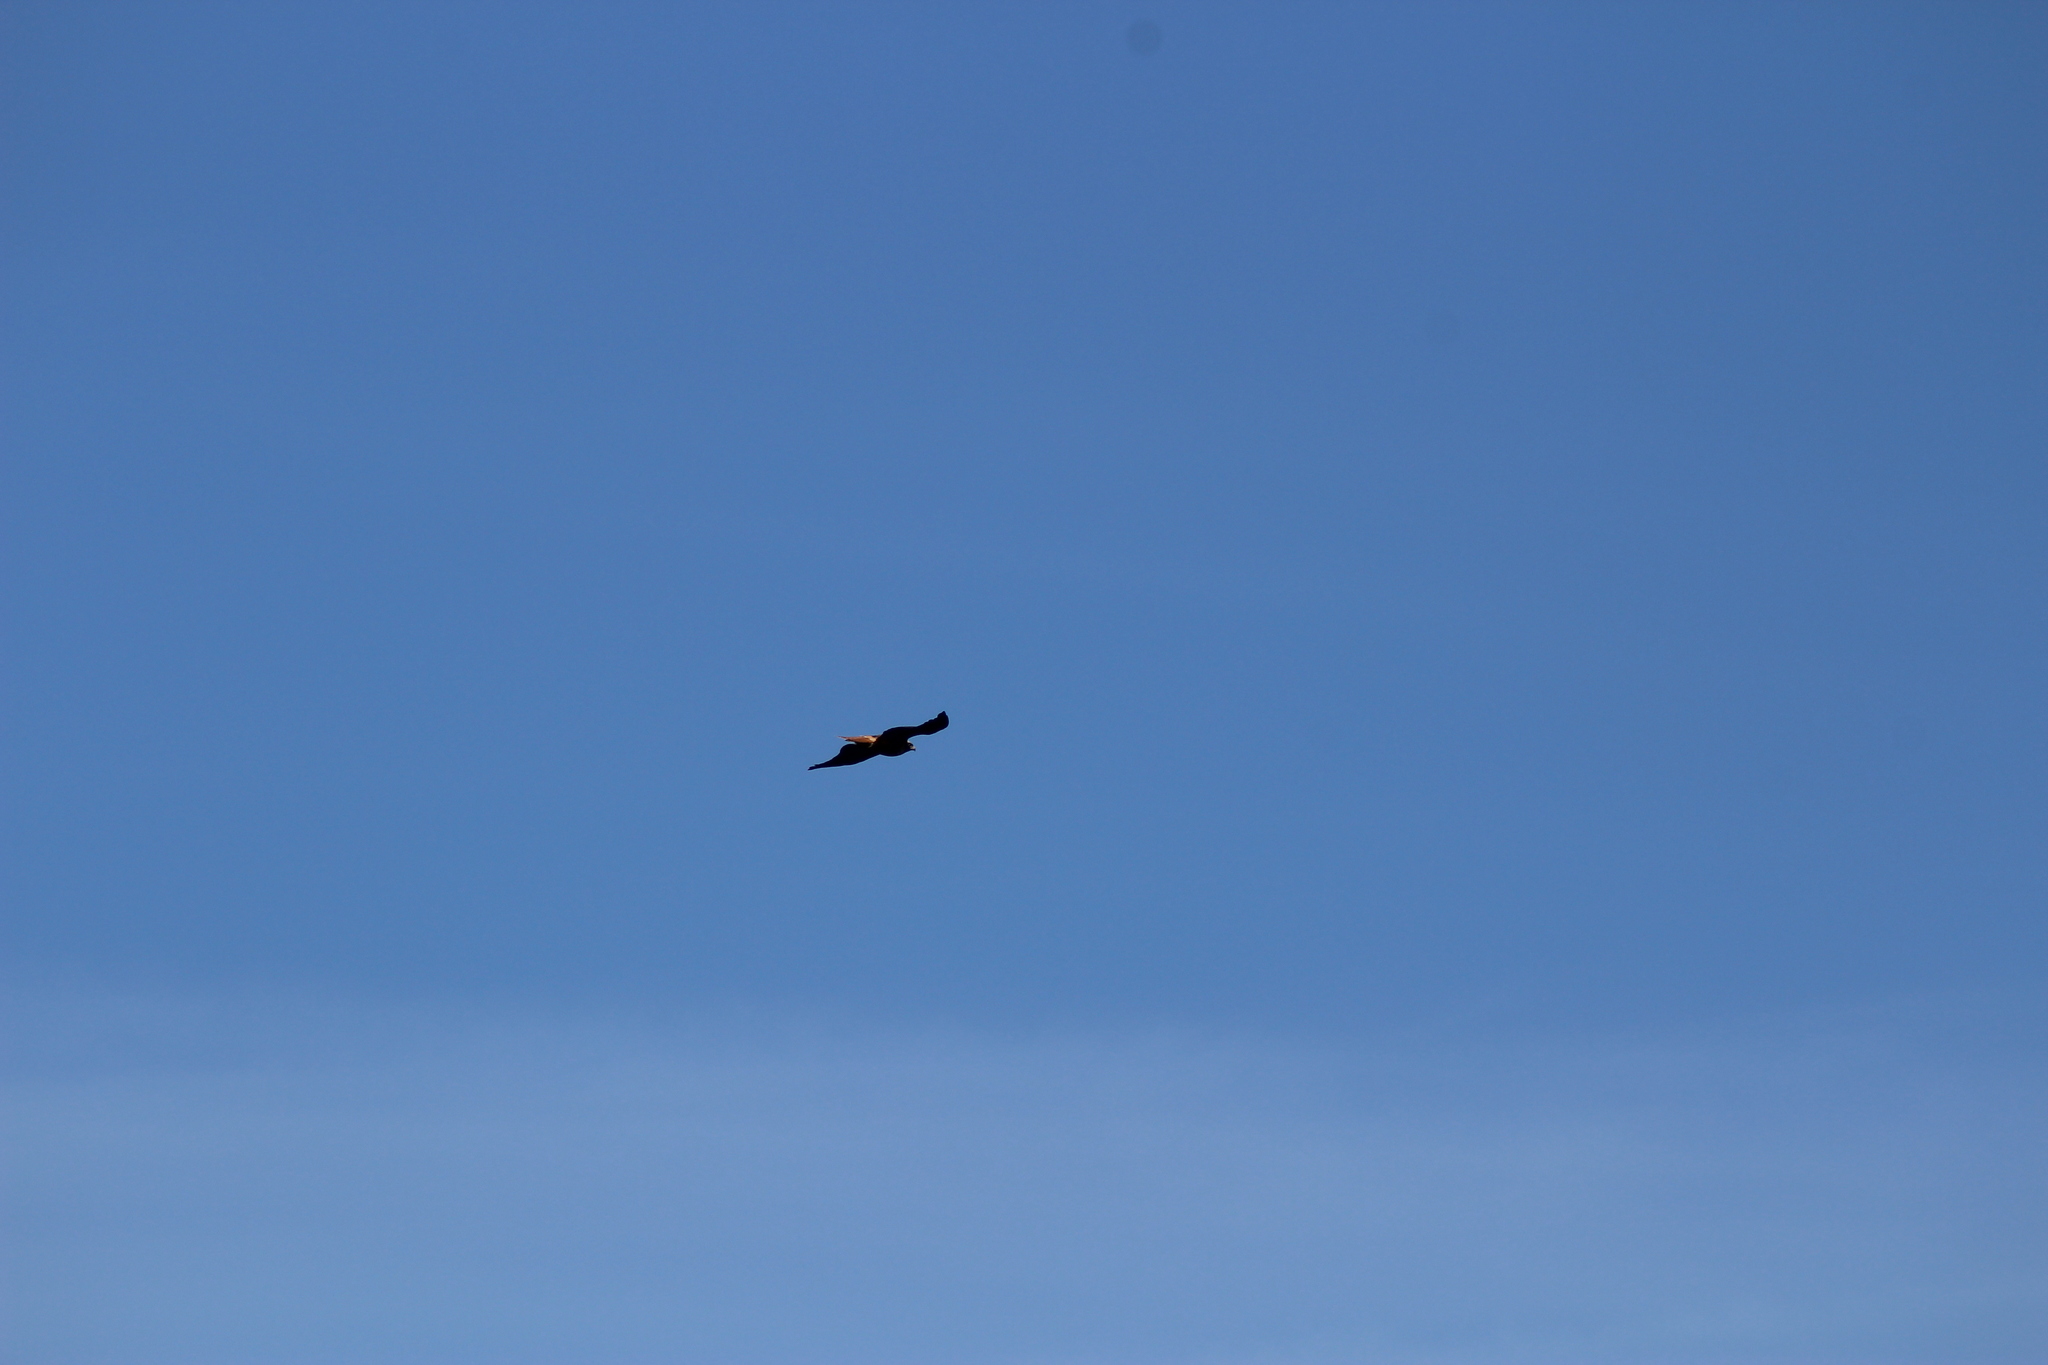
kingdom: Animalia
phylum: Chordata
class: Aves
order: Accipitriformes
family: Accipitridae
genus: Buteo
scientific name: Buteo jamaicensis
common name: Red-tailed hawk
